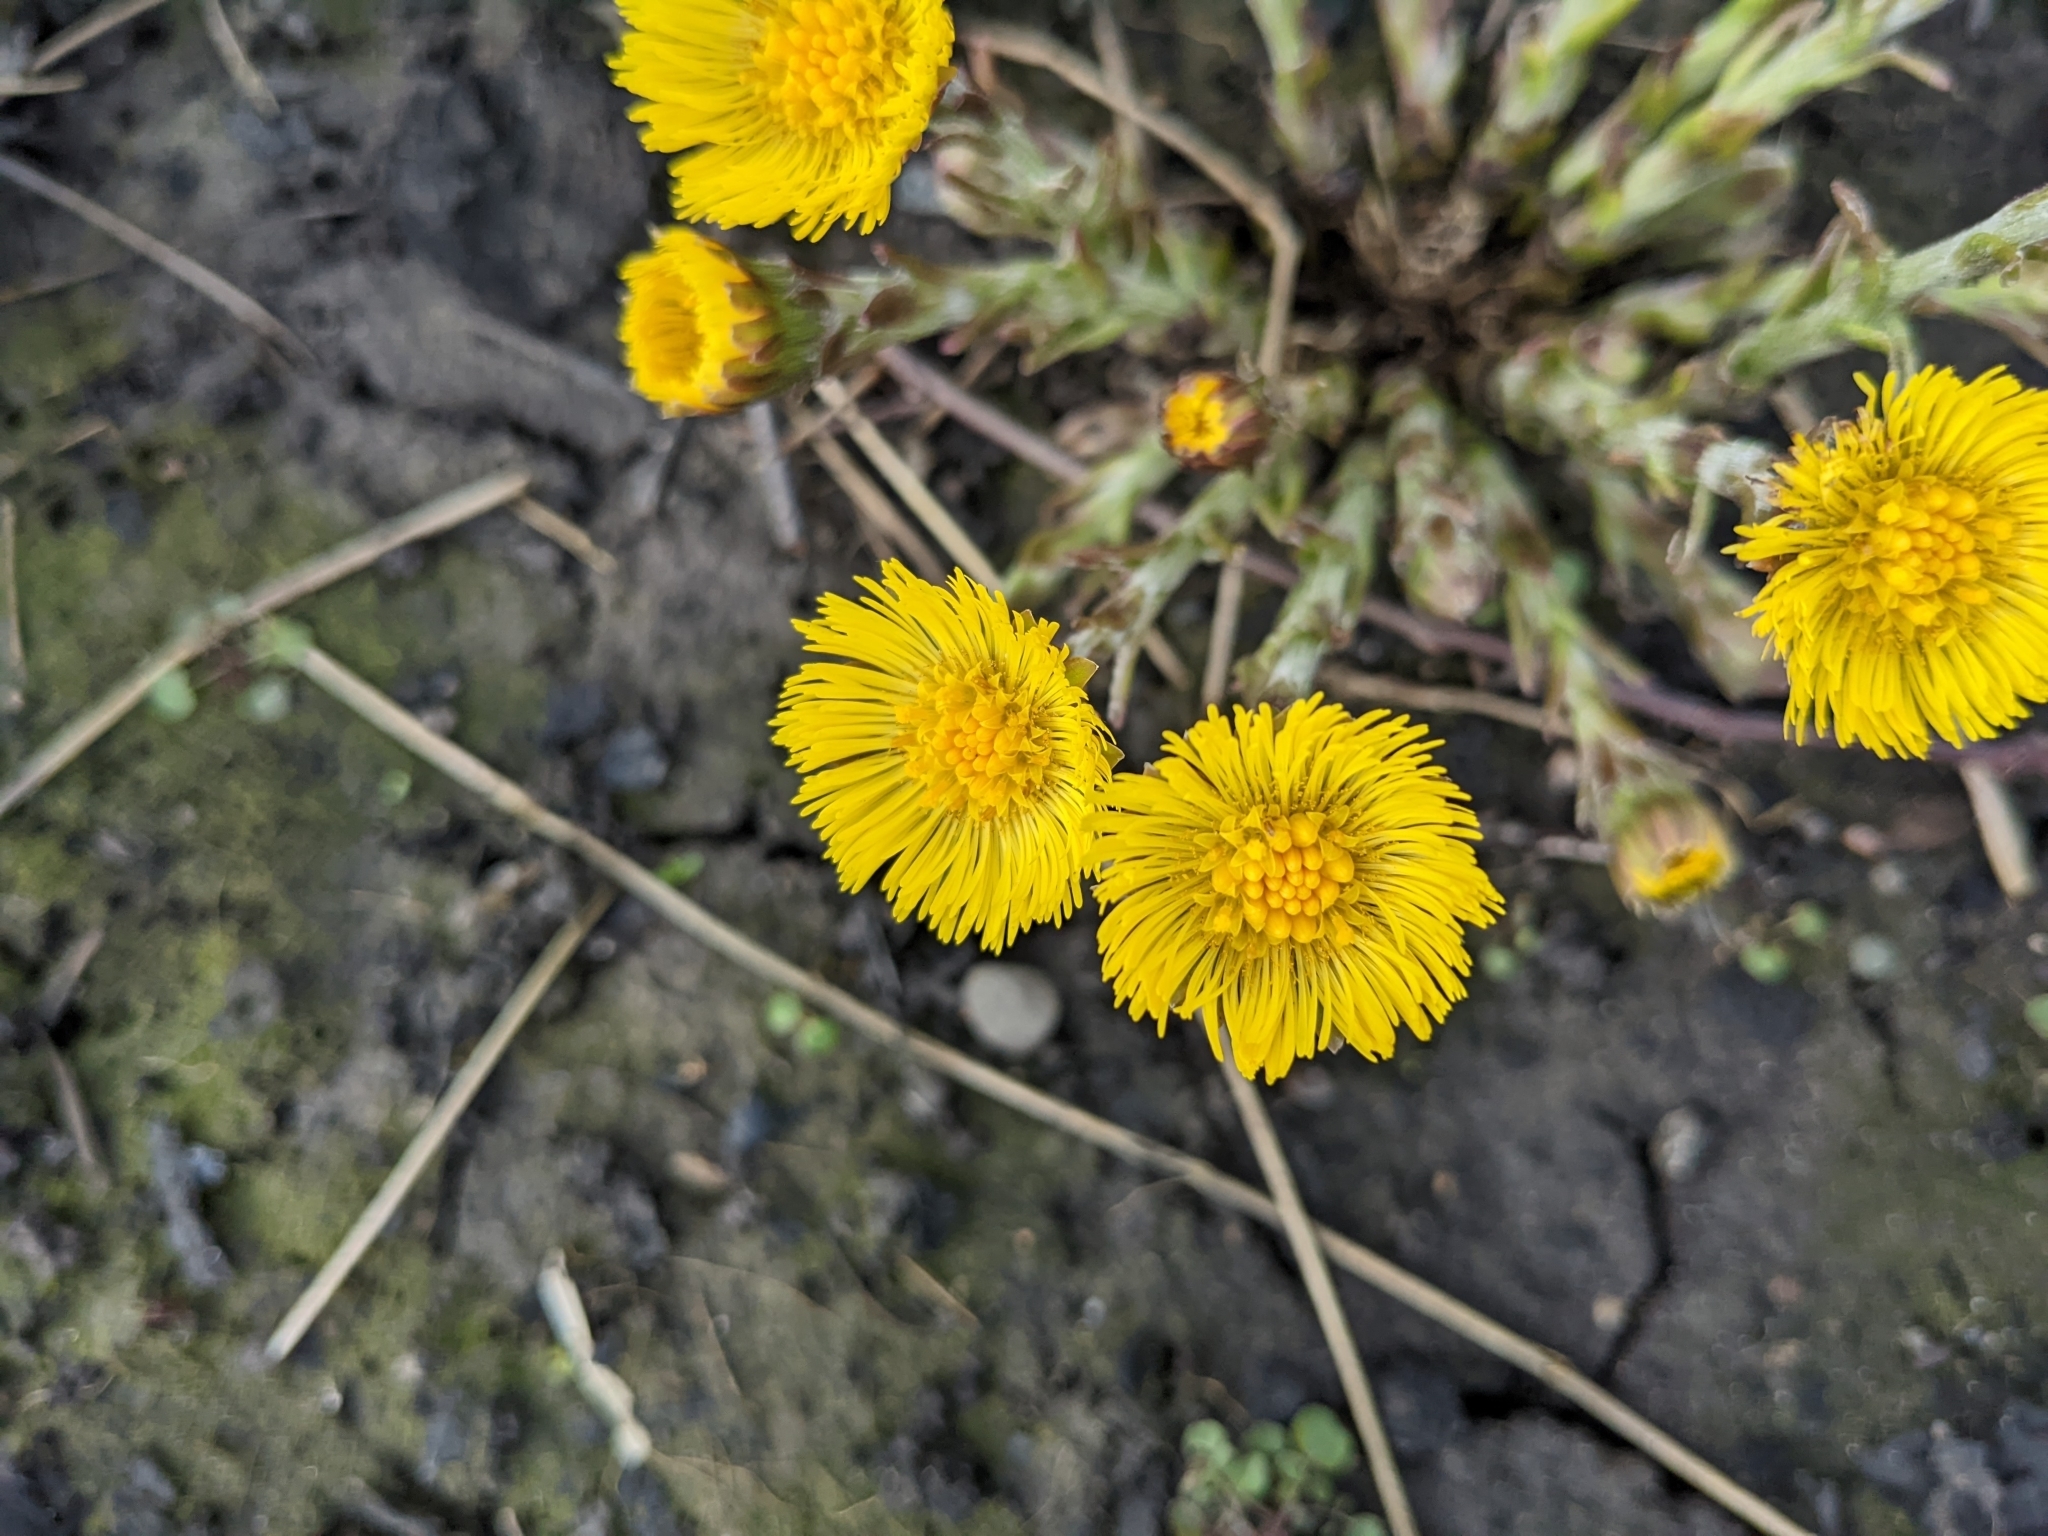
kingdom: Plantae
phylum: Tracheophyta
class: Magnoliopsida
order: Asterales
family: Asteraceae
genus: Tussilago
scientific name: Tussilago farfara
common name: Coltsfoot
